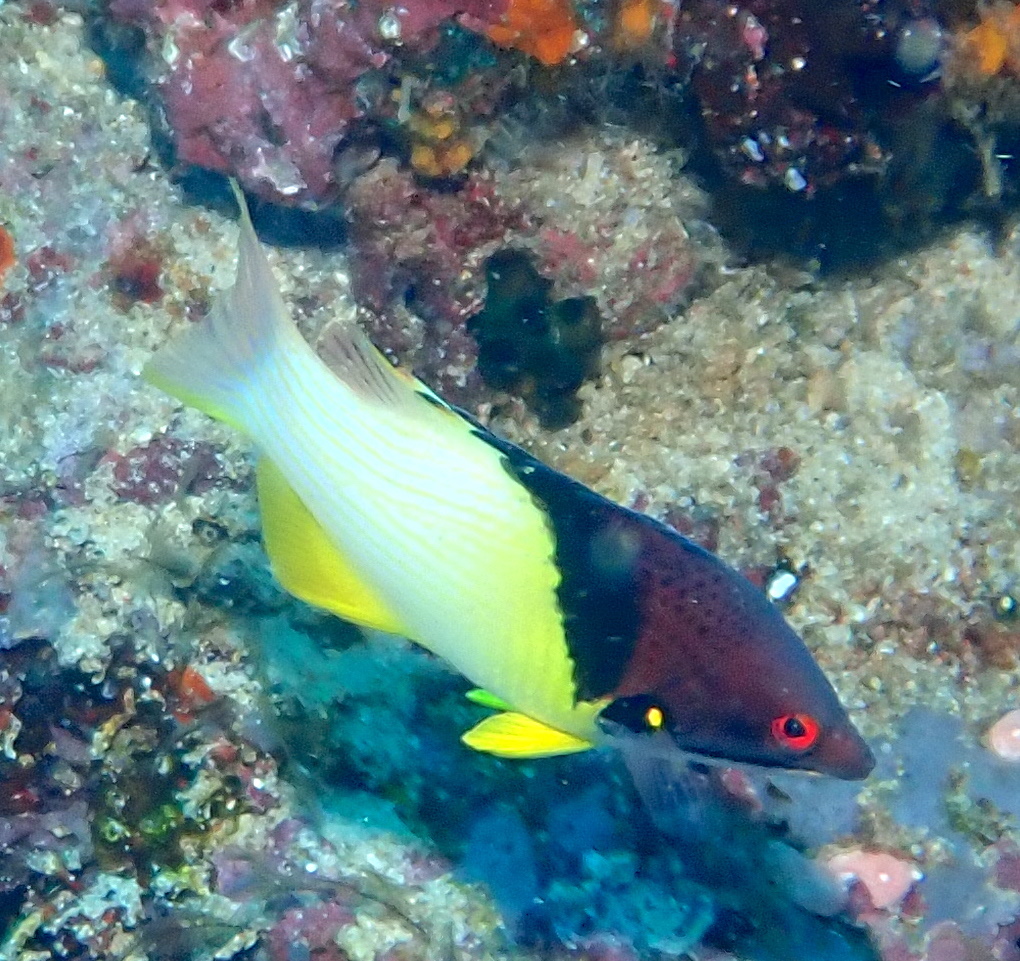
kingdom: Animalia
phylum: Chordata
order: Perciformes
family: Labridae
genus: Bodianus
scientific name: Bodianus mesothorax
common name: Coral hogfish
